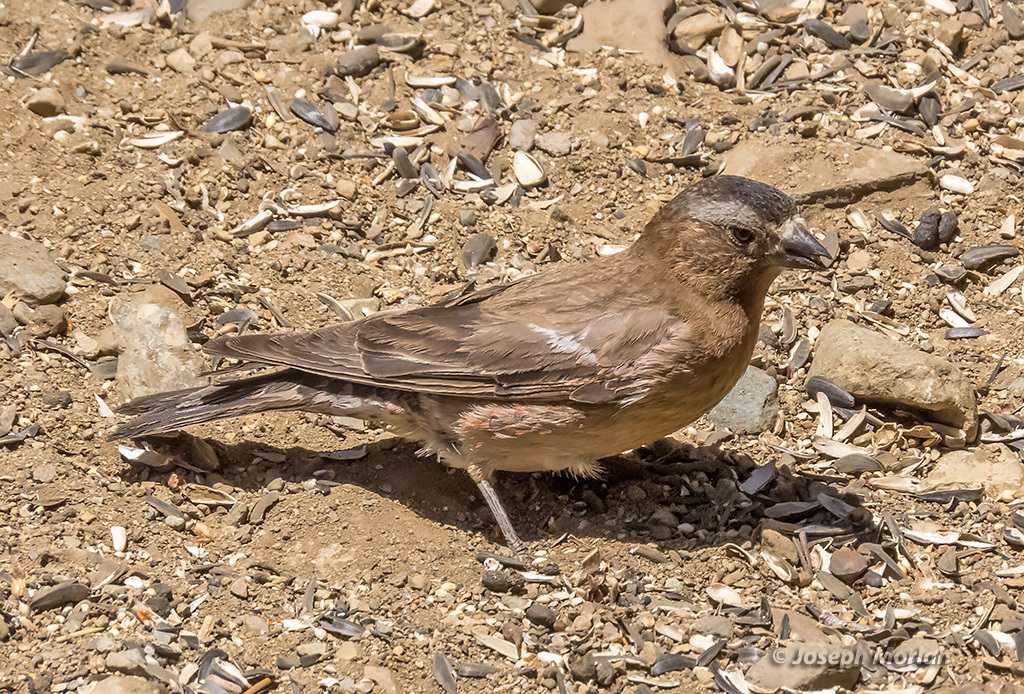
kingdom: Animalia
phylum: Chordata
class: Aves
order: Passeriformes
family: Fringillidae
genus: Leucosticte
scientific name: Leucosticte tephrocotis
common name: Gray-crowned rosy-finch
